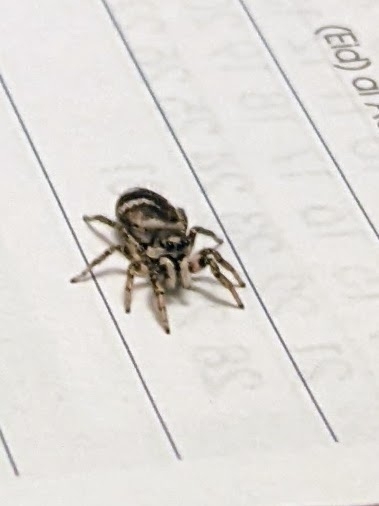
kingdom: Animalia
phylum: Arthropoda
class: Arachnida
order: Araneae
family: Salticidae
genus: Salticus
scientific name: Salticus scenicus
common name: Zebra jumper
